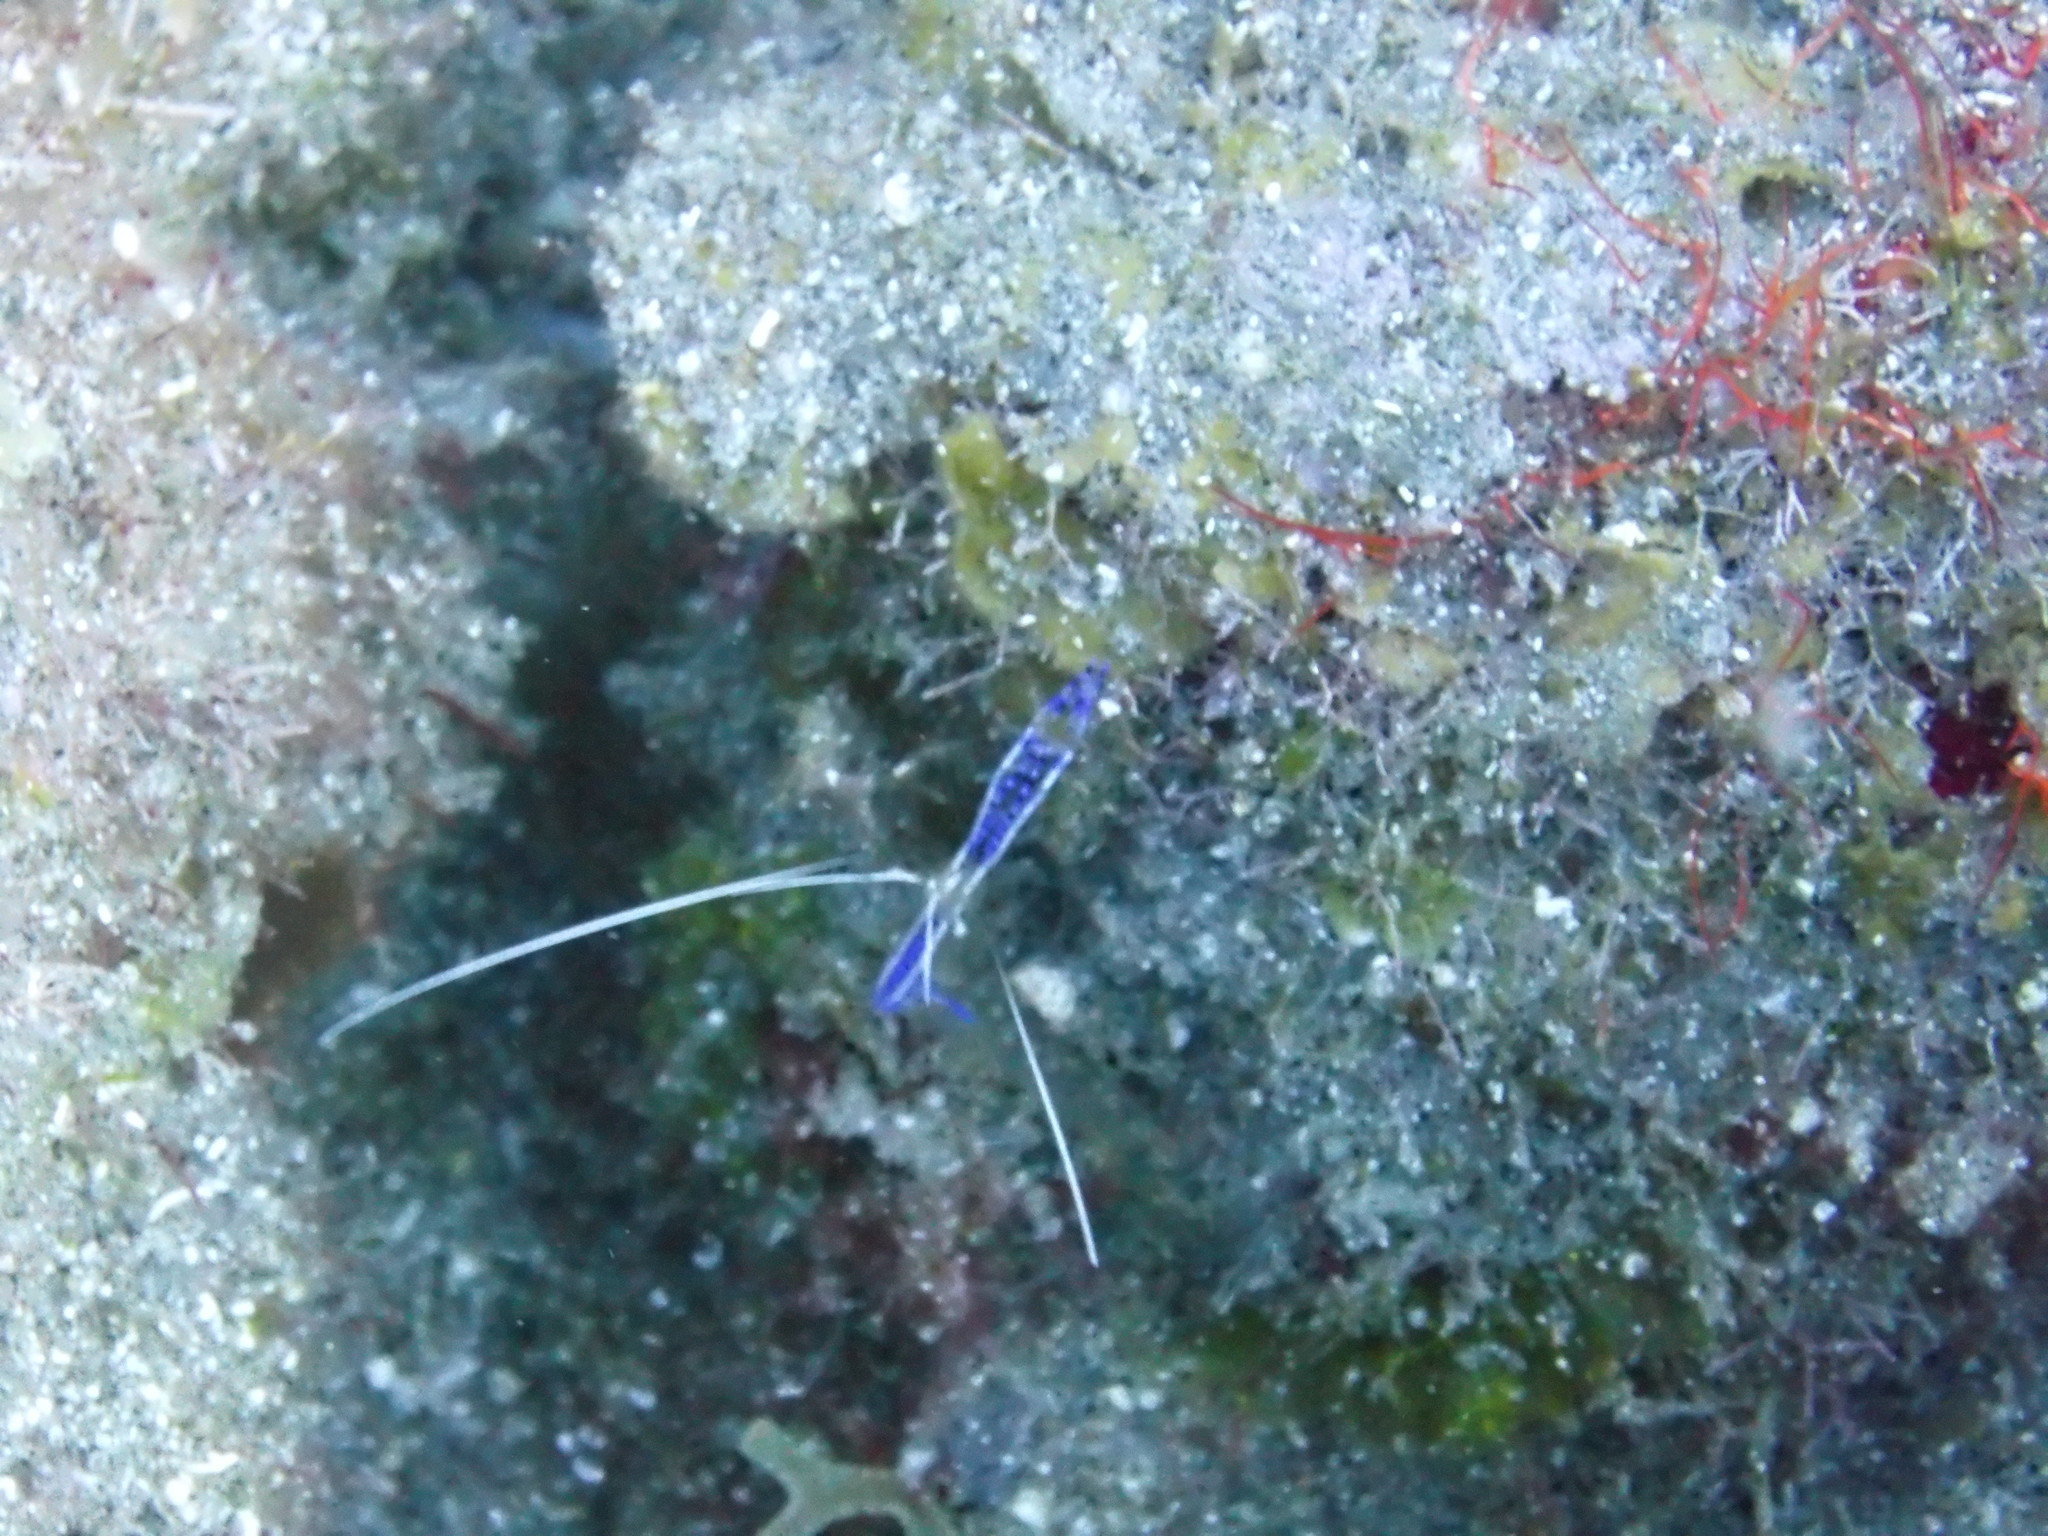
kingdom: Animalia
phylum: Arthropoda
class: Malacostraca
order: Decapoda
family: Palaemonidae
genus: Ancylomenes
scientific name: Ancylomenes pedersoni
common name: Pederson's cleaning shrimp
